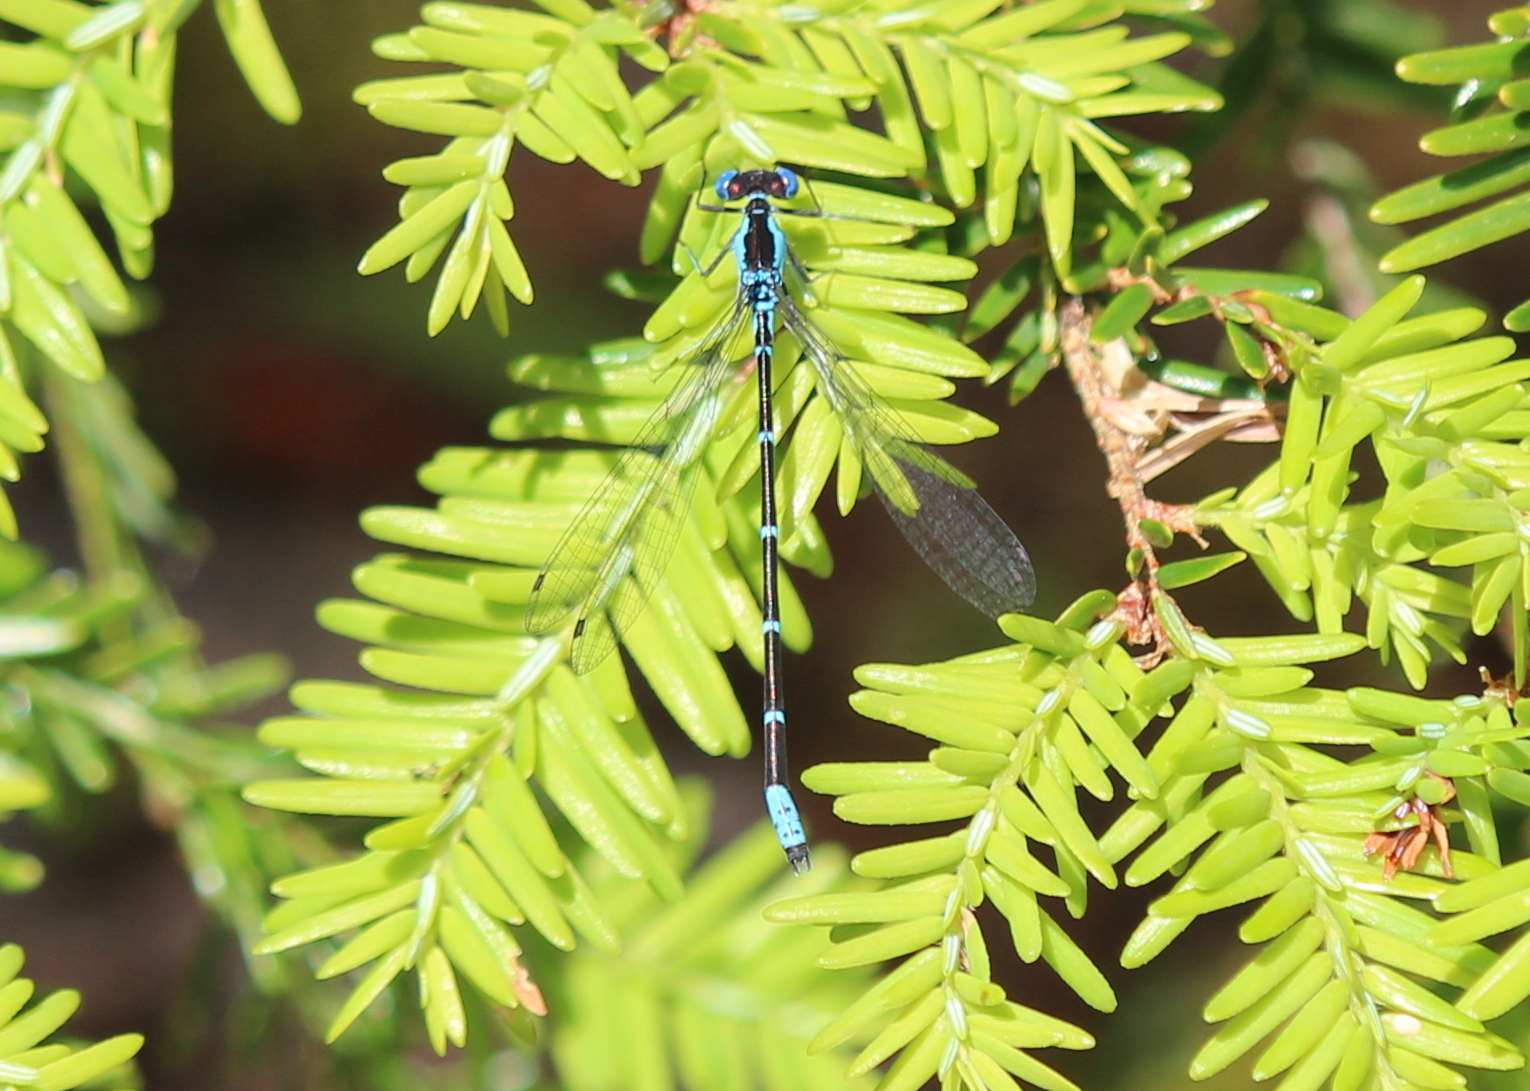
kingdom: Animalia
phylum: Arthropoda
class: Insecta
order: Odonata
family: Coenagrionidae
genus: Chromagrion
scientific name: Chromagrion conditum
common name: Aurora damsel
